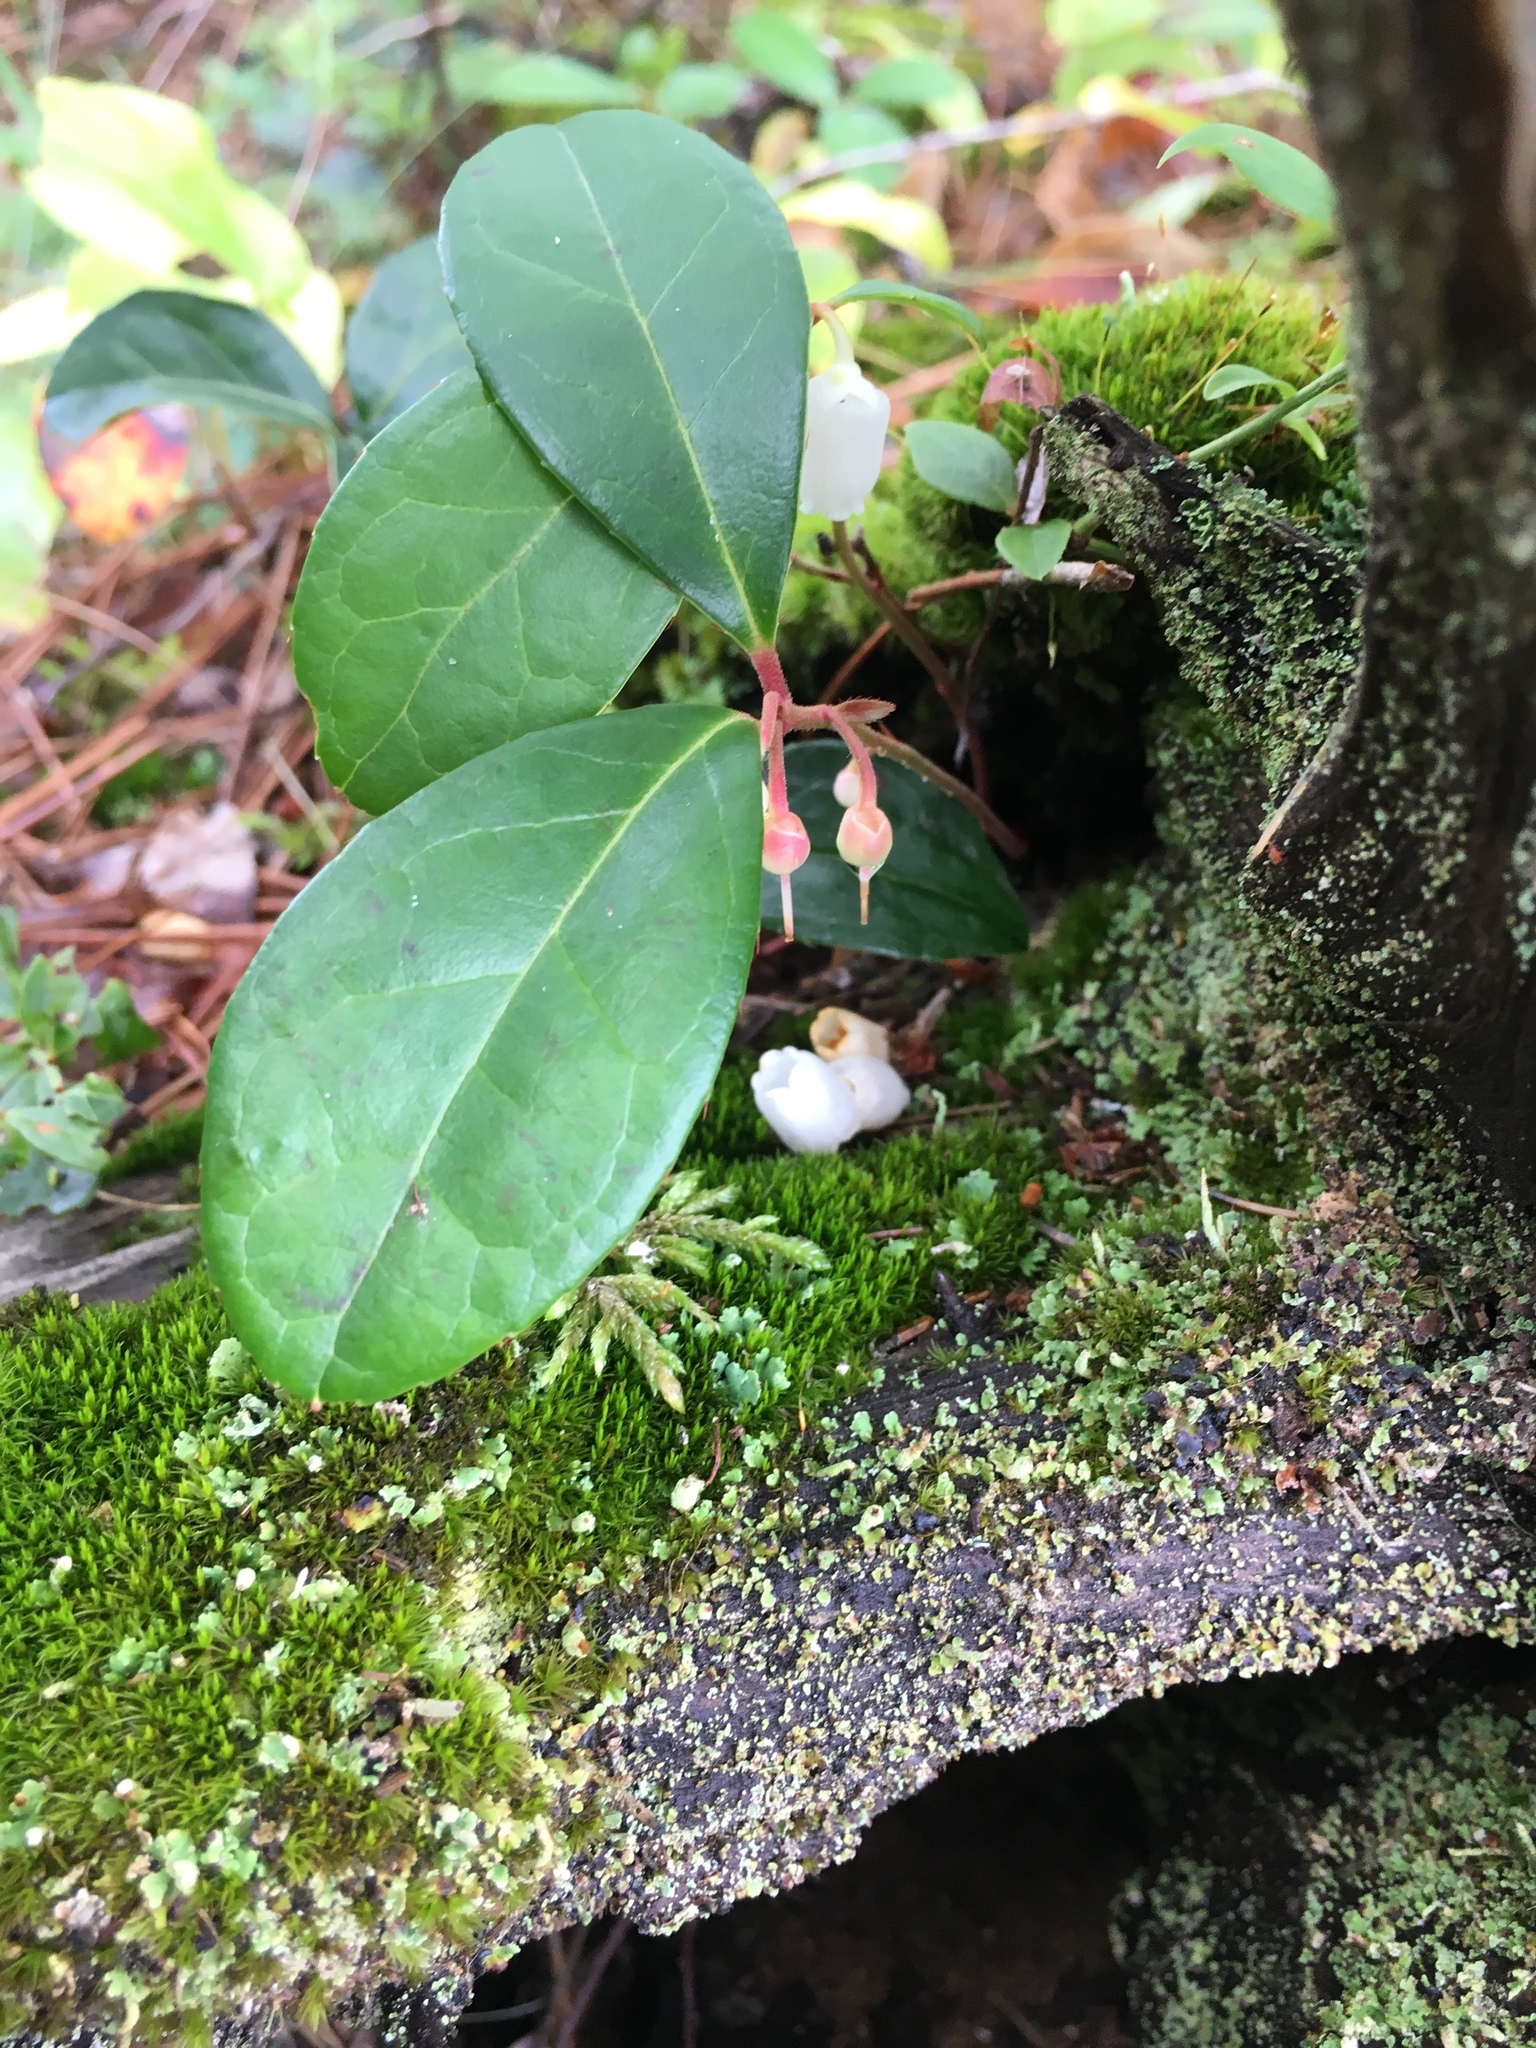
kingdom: Plantae
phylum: Tracheophyta
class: Magnoliopsida
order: Ericales
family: Ericaceae
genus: Gaultheria
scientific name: Gaultheria procumbens
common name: Checkerberry
